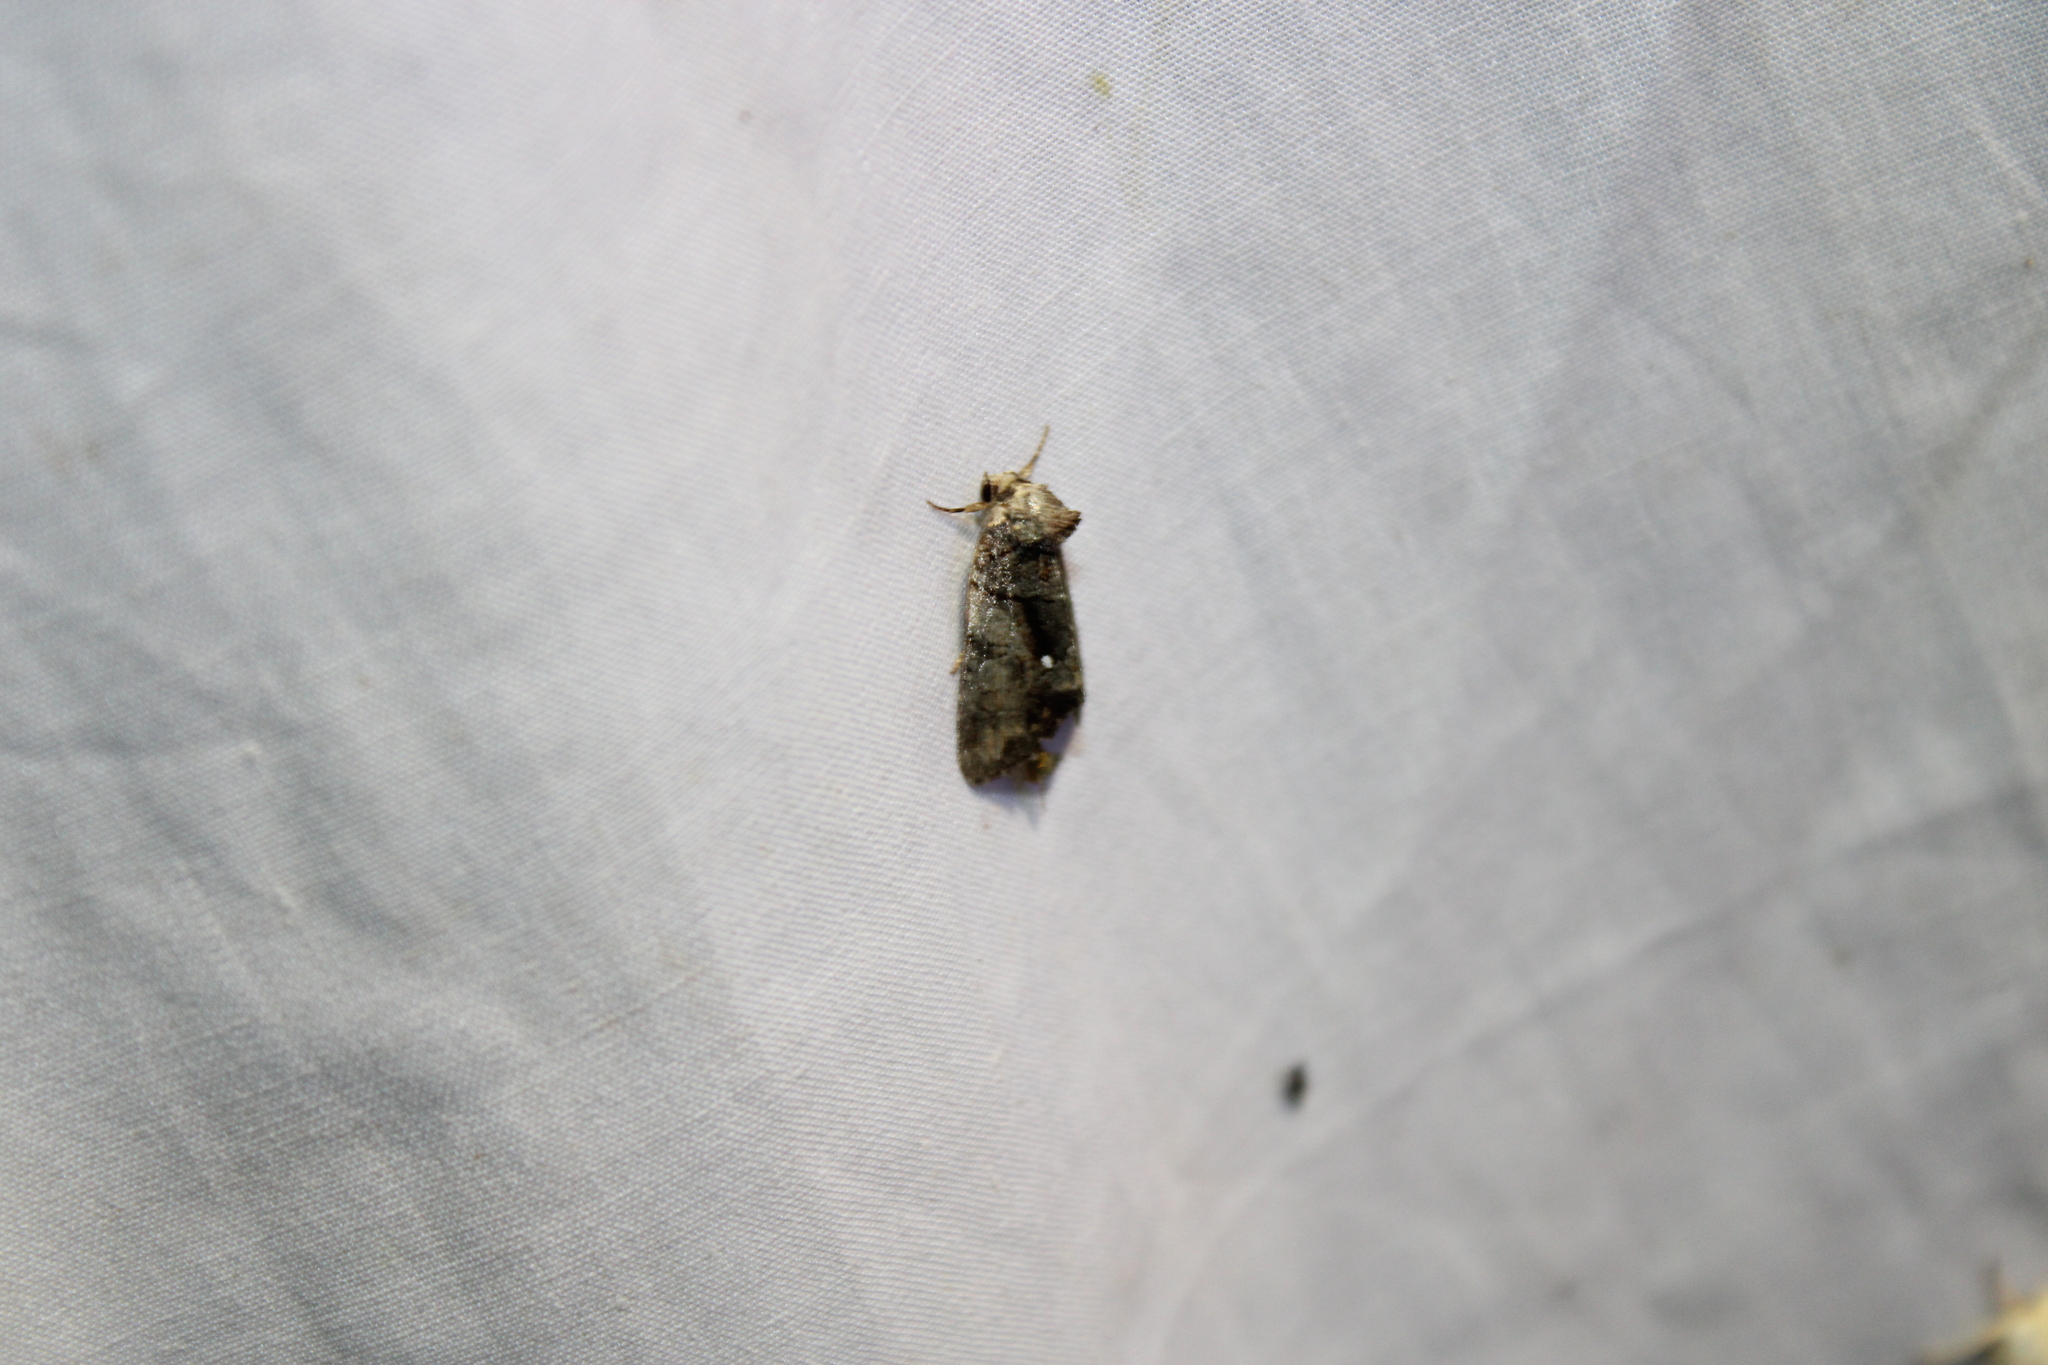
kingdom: Animalia
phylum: Arthropoda
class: Insecta
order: Lepidoptera
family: Noctuidae
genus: Chytonix
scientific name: Chytonix palliatricula
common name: Cloaked marvel
